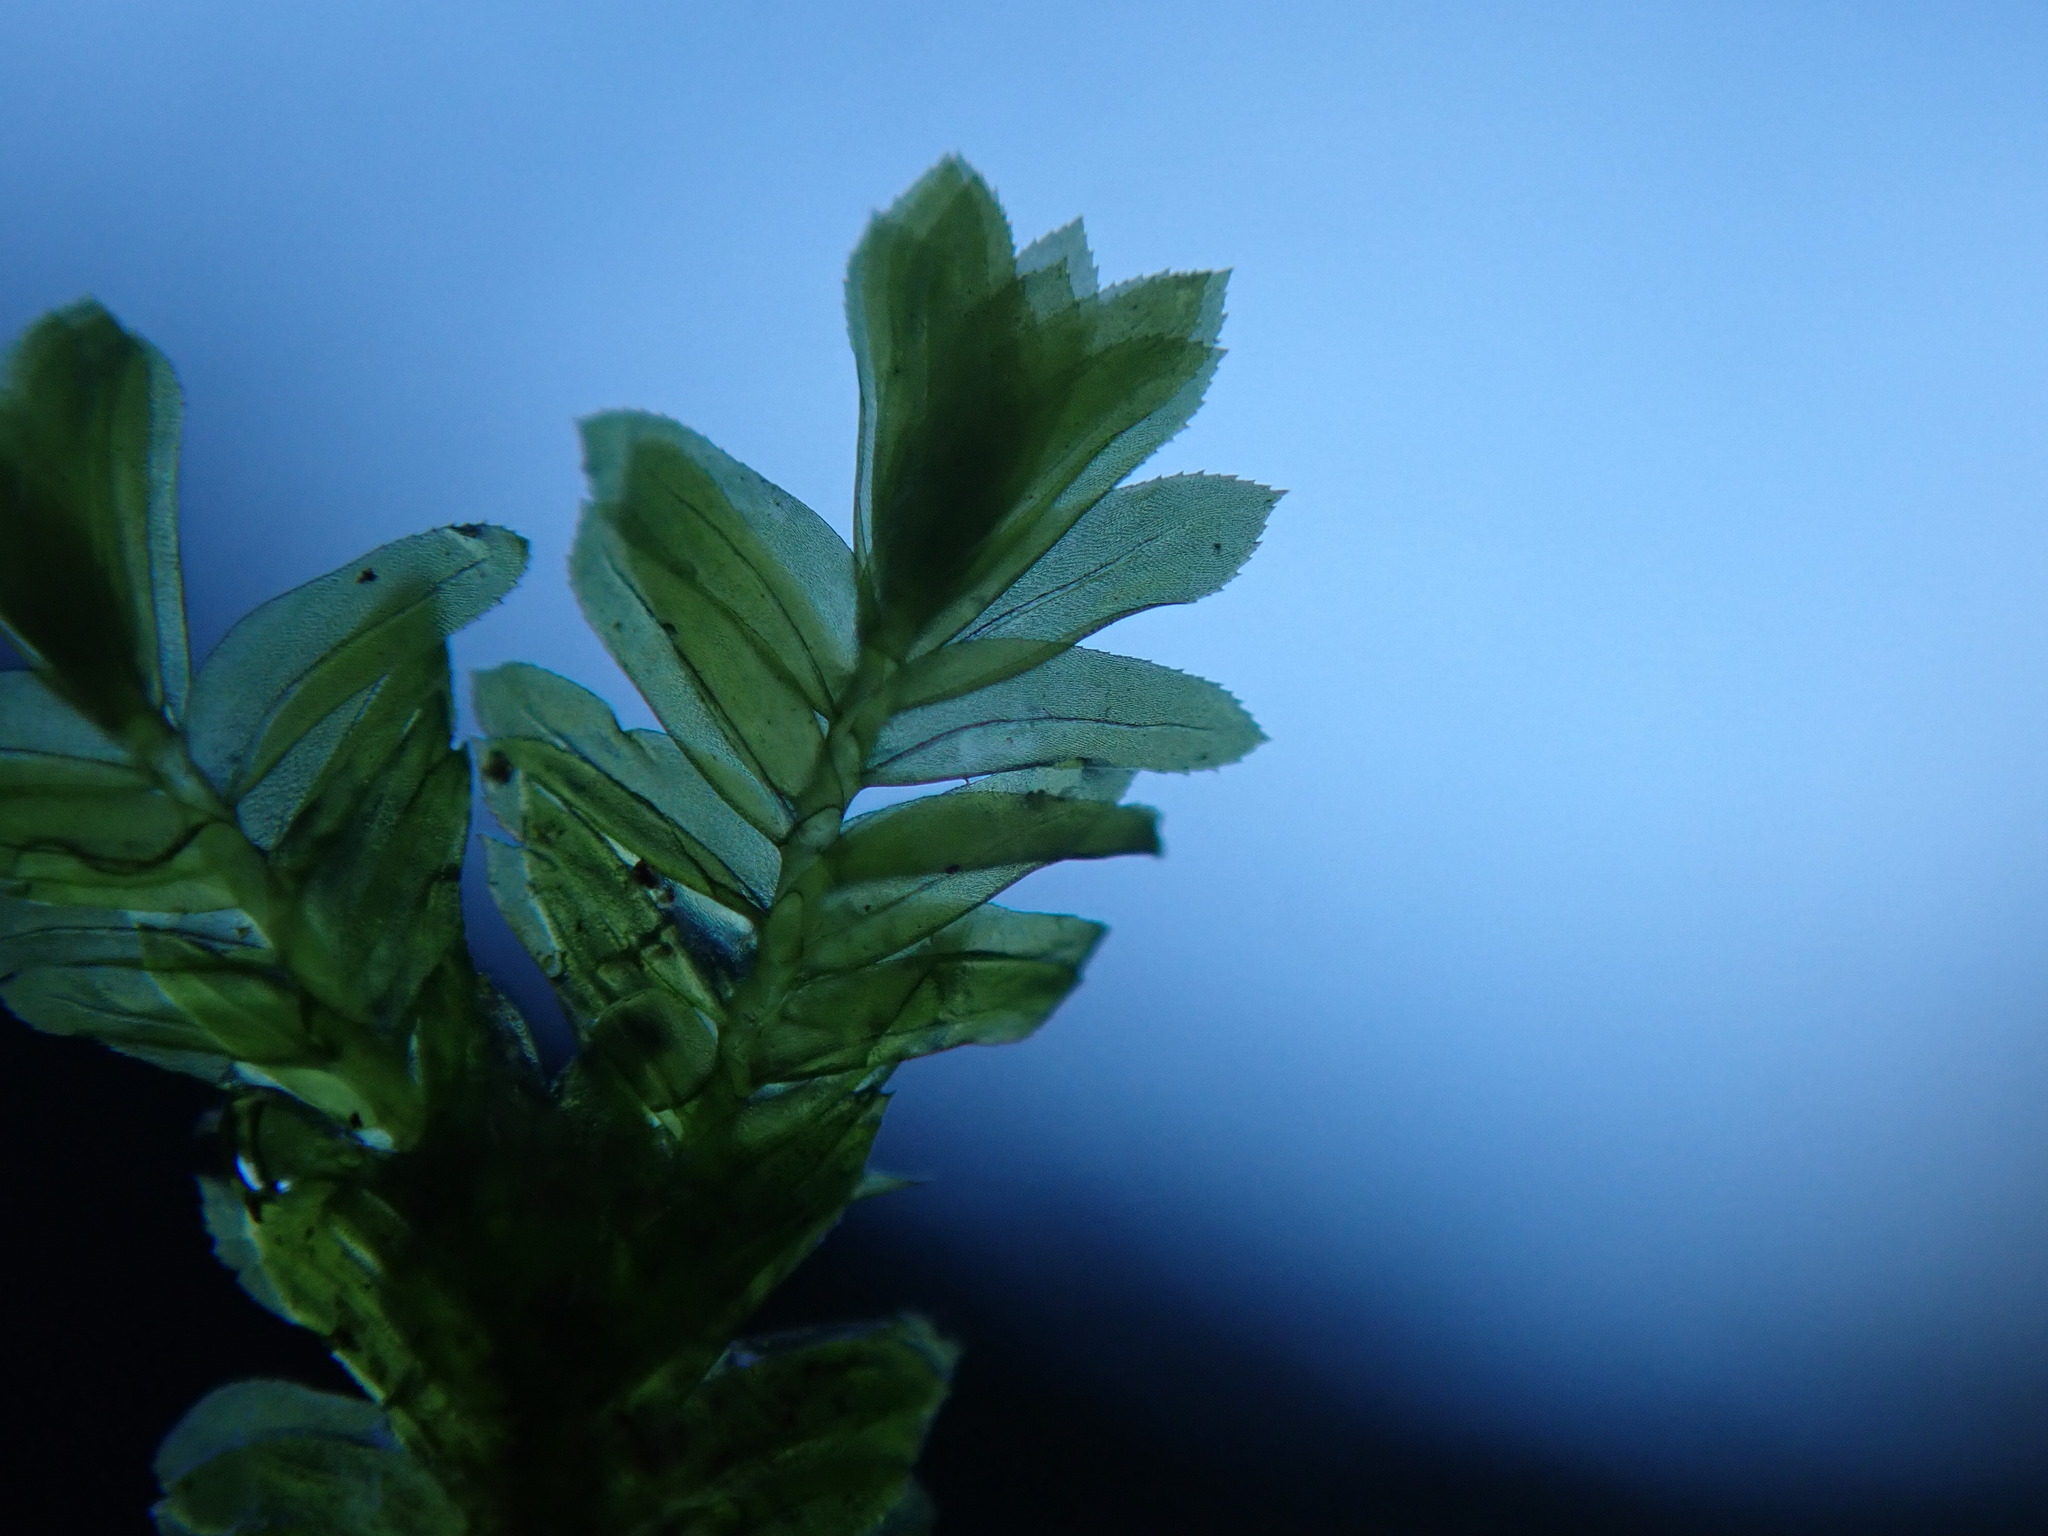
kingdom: Plantae
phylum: Bryophyta
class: Bryopsida
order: Hypnales
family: Neckeraceae
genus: Dannorrisia
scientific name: Dannorrisia bigelovii
